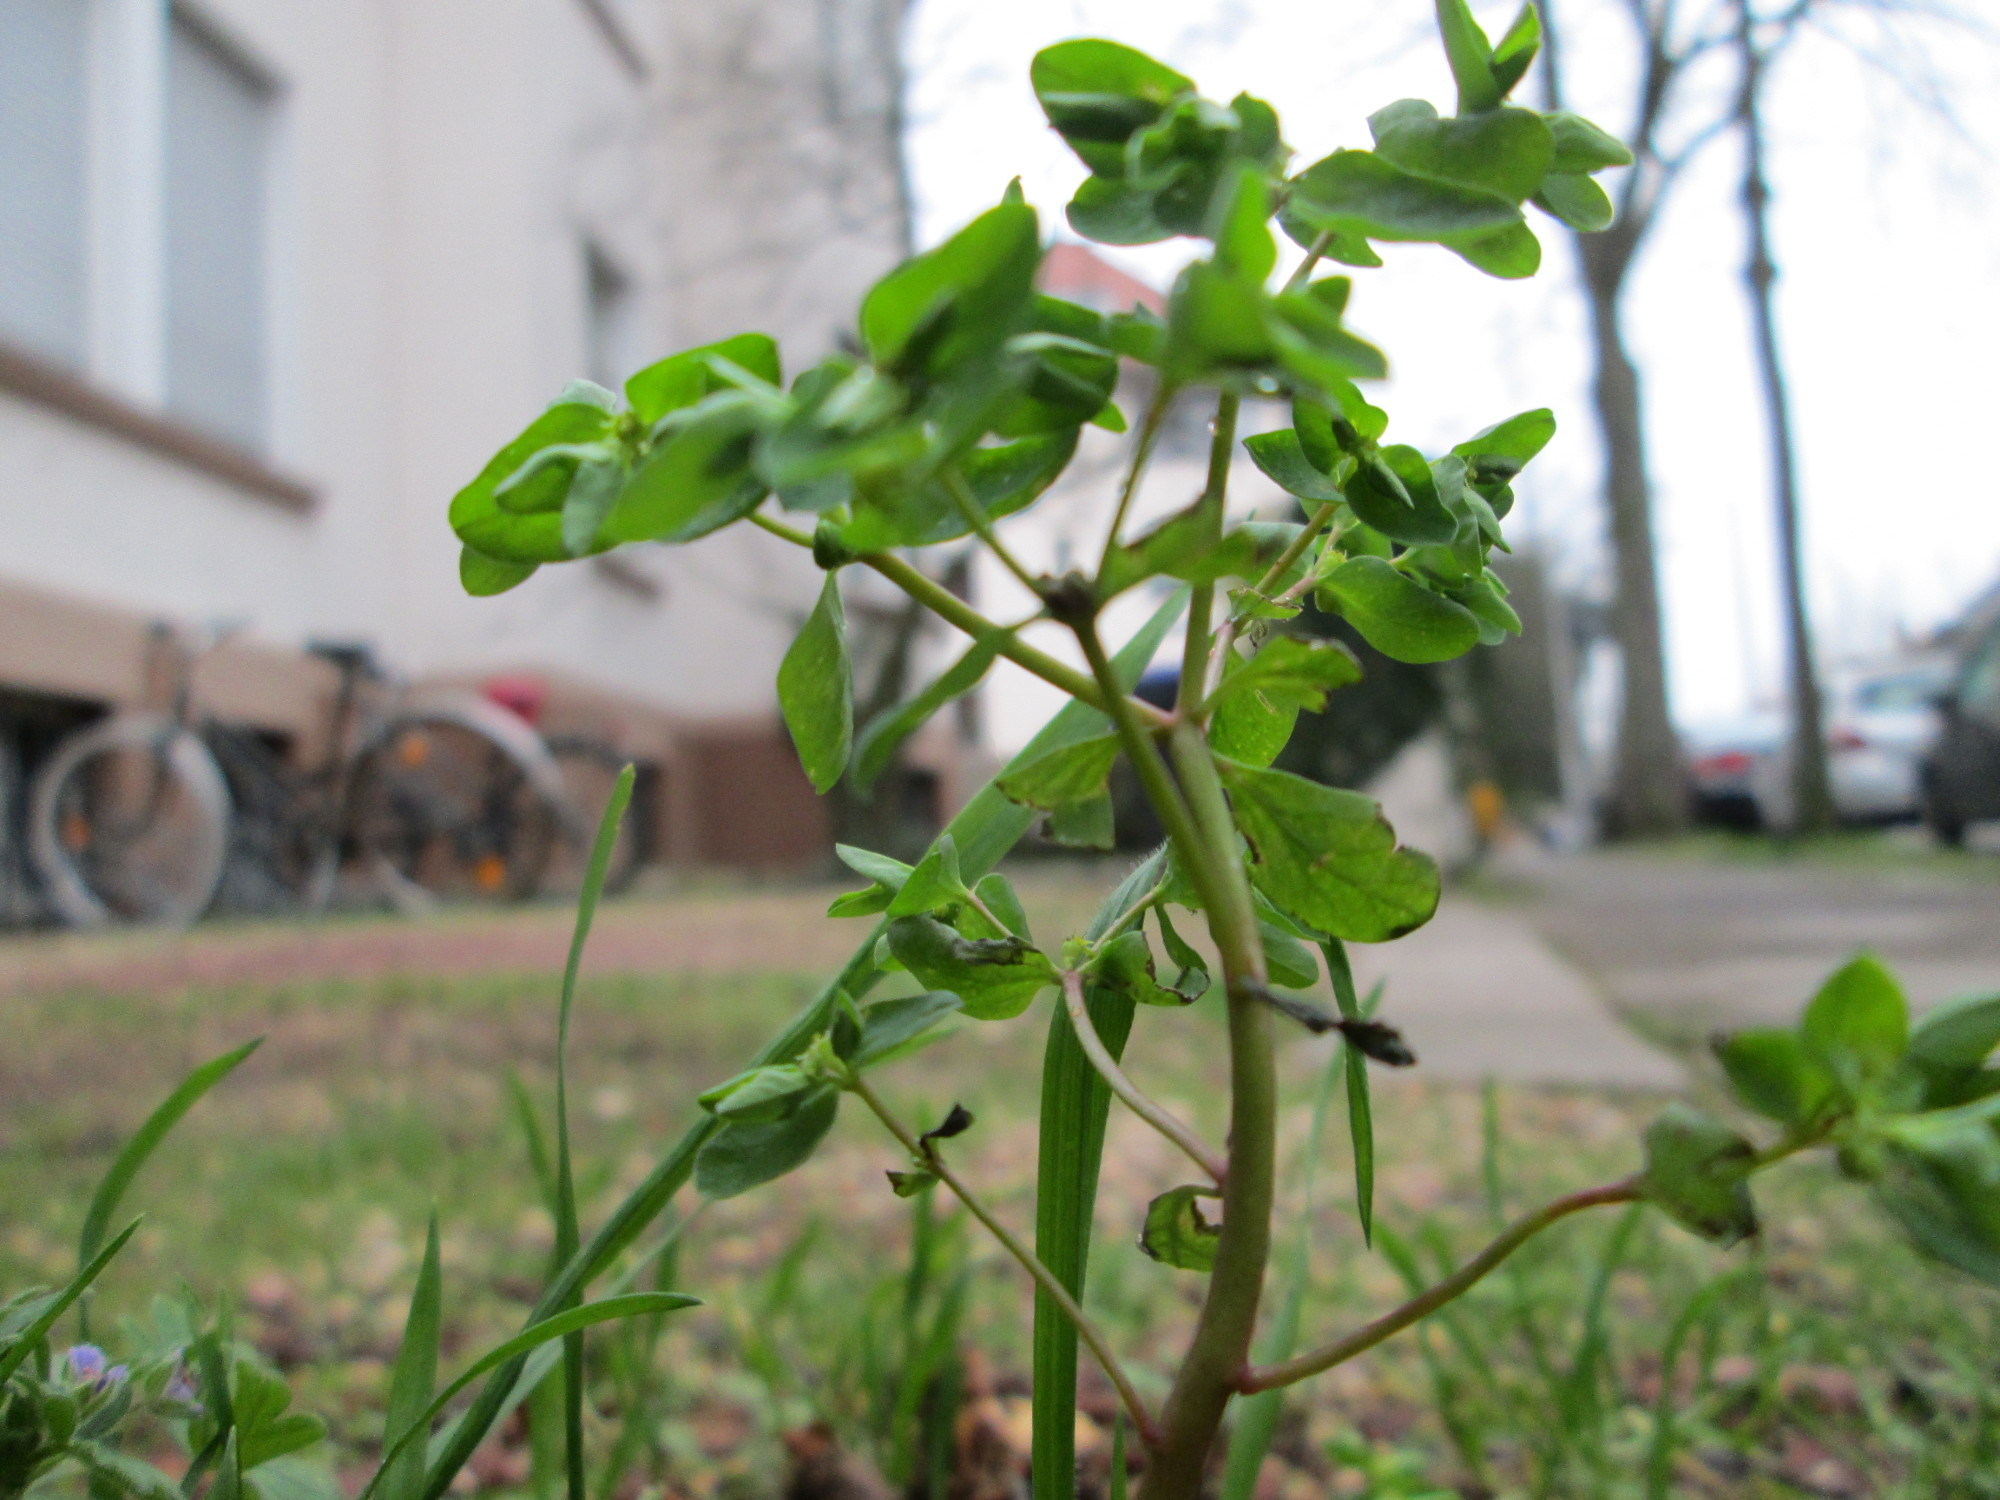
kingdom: Plantae
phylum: Tracheophyta
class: Magnoliopsida
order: Malpighiales
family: Euphorbiaceae
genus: Euphorbia
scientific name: Euphorbia peplus
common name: Petty spurge
